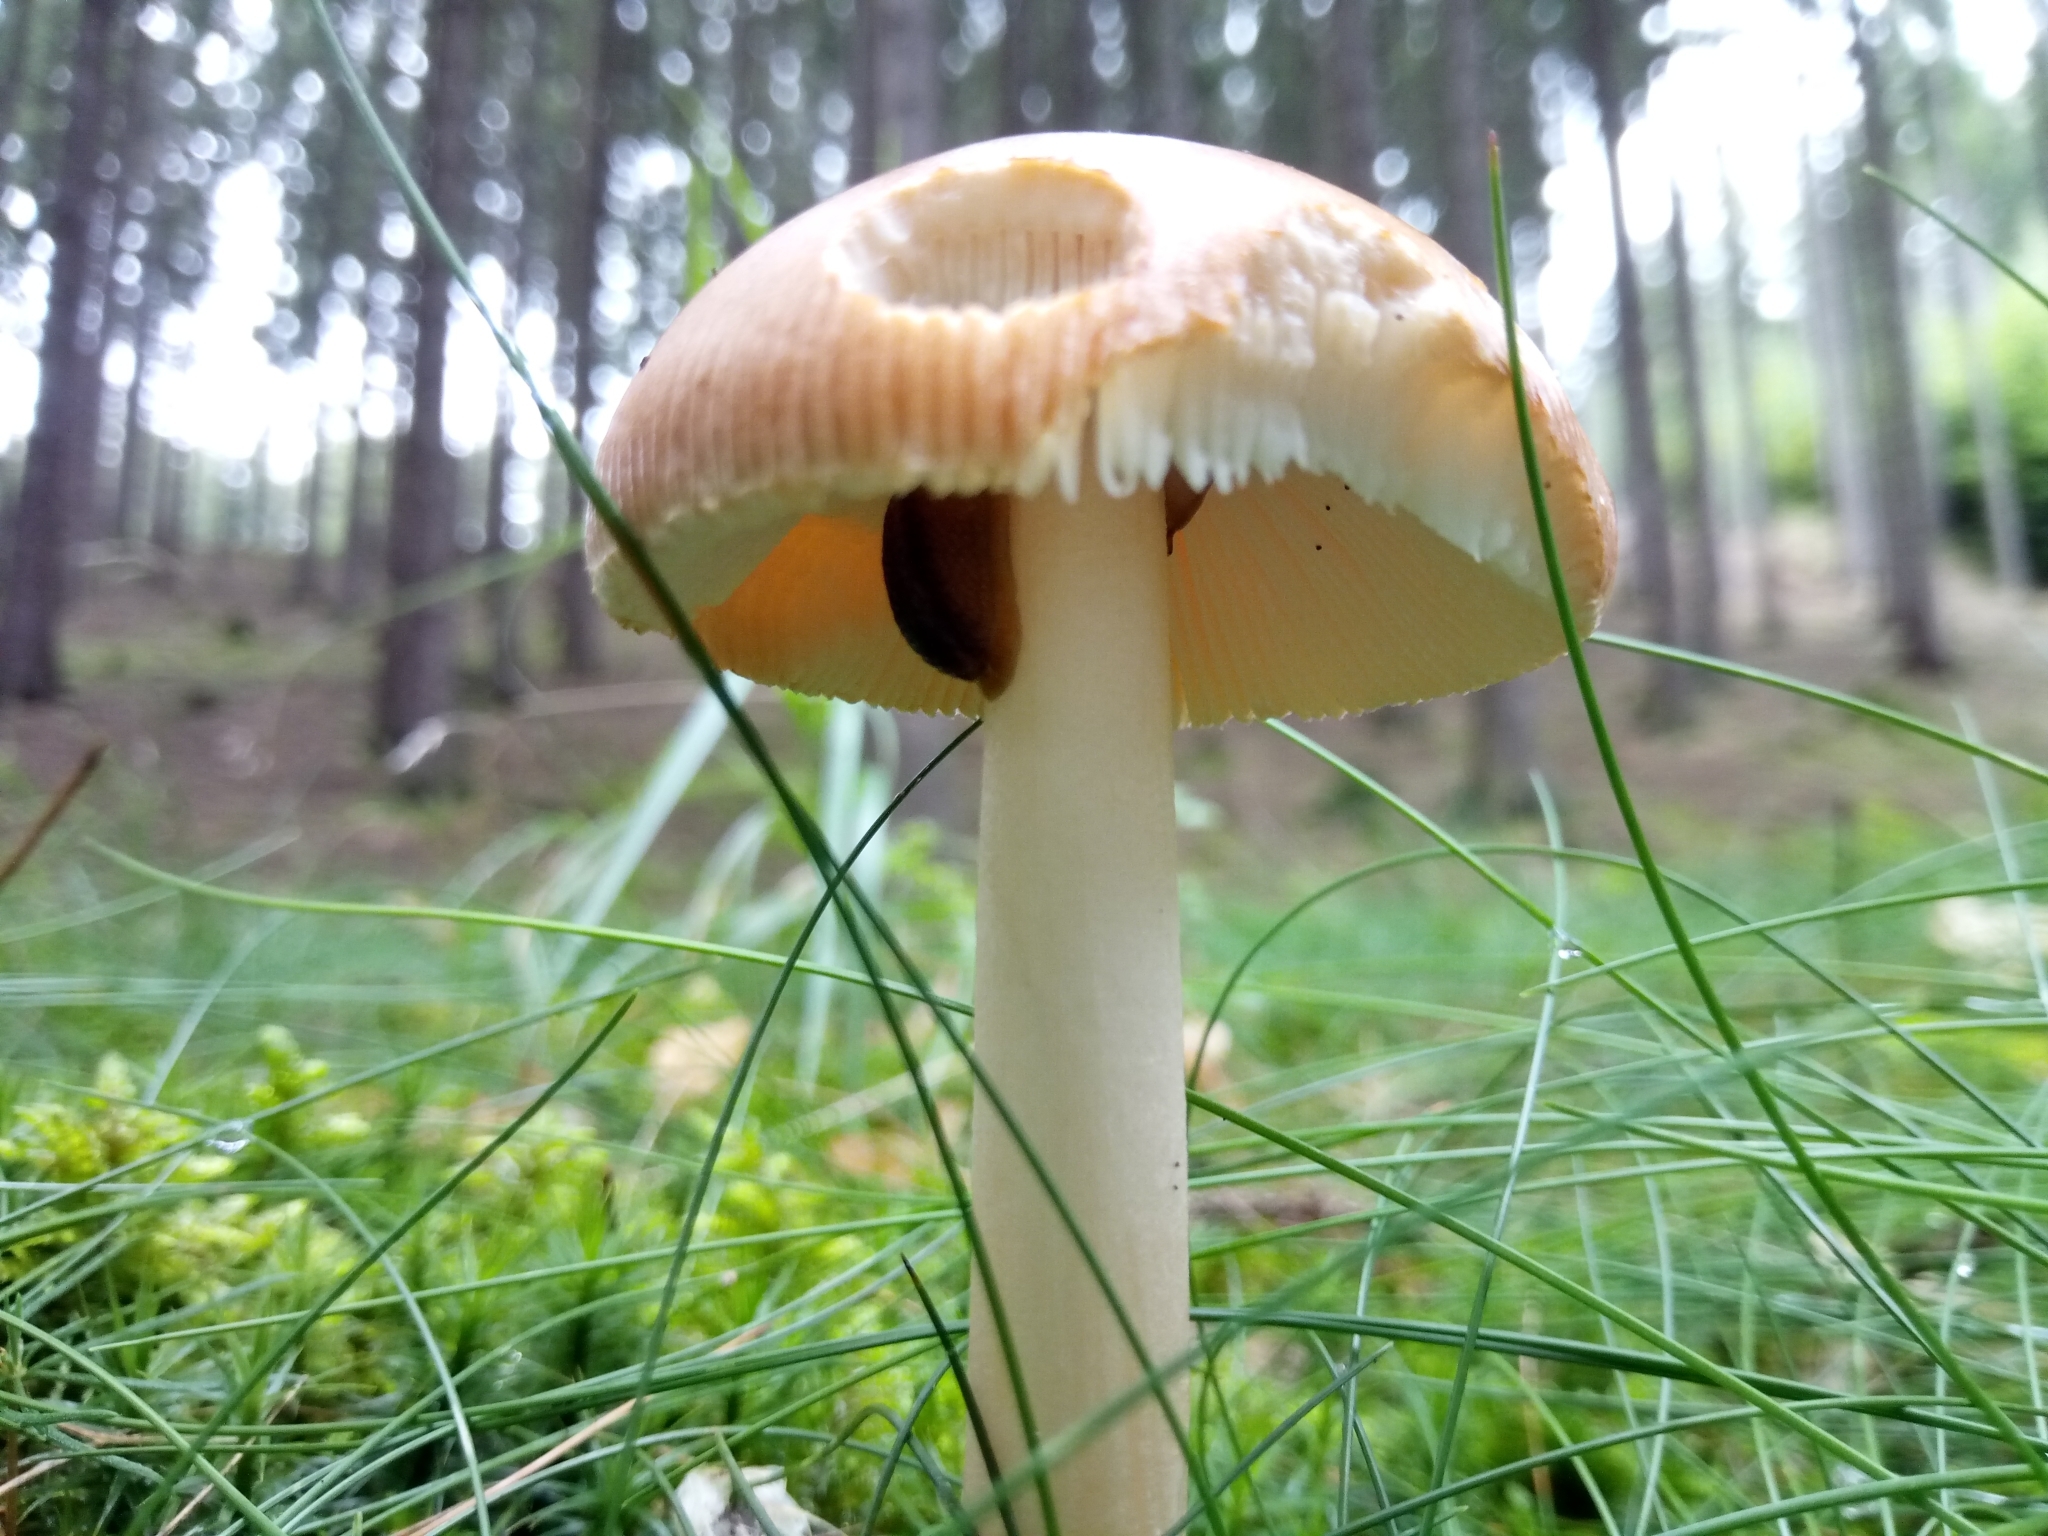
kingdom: Fungi
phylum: Basidiomycota
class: Agaricomycetes
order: Agaricales
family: Amanitaceae
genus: Amanita
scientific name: Amanita fulva
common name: Tawny grisette
